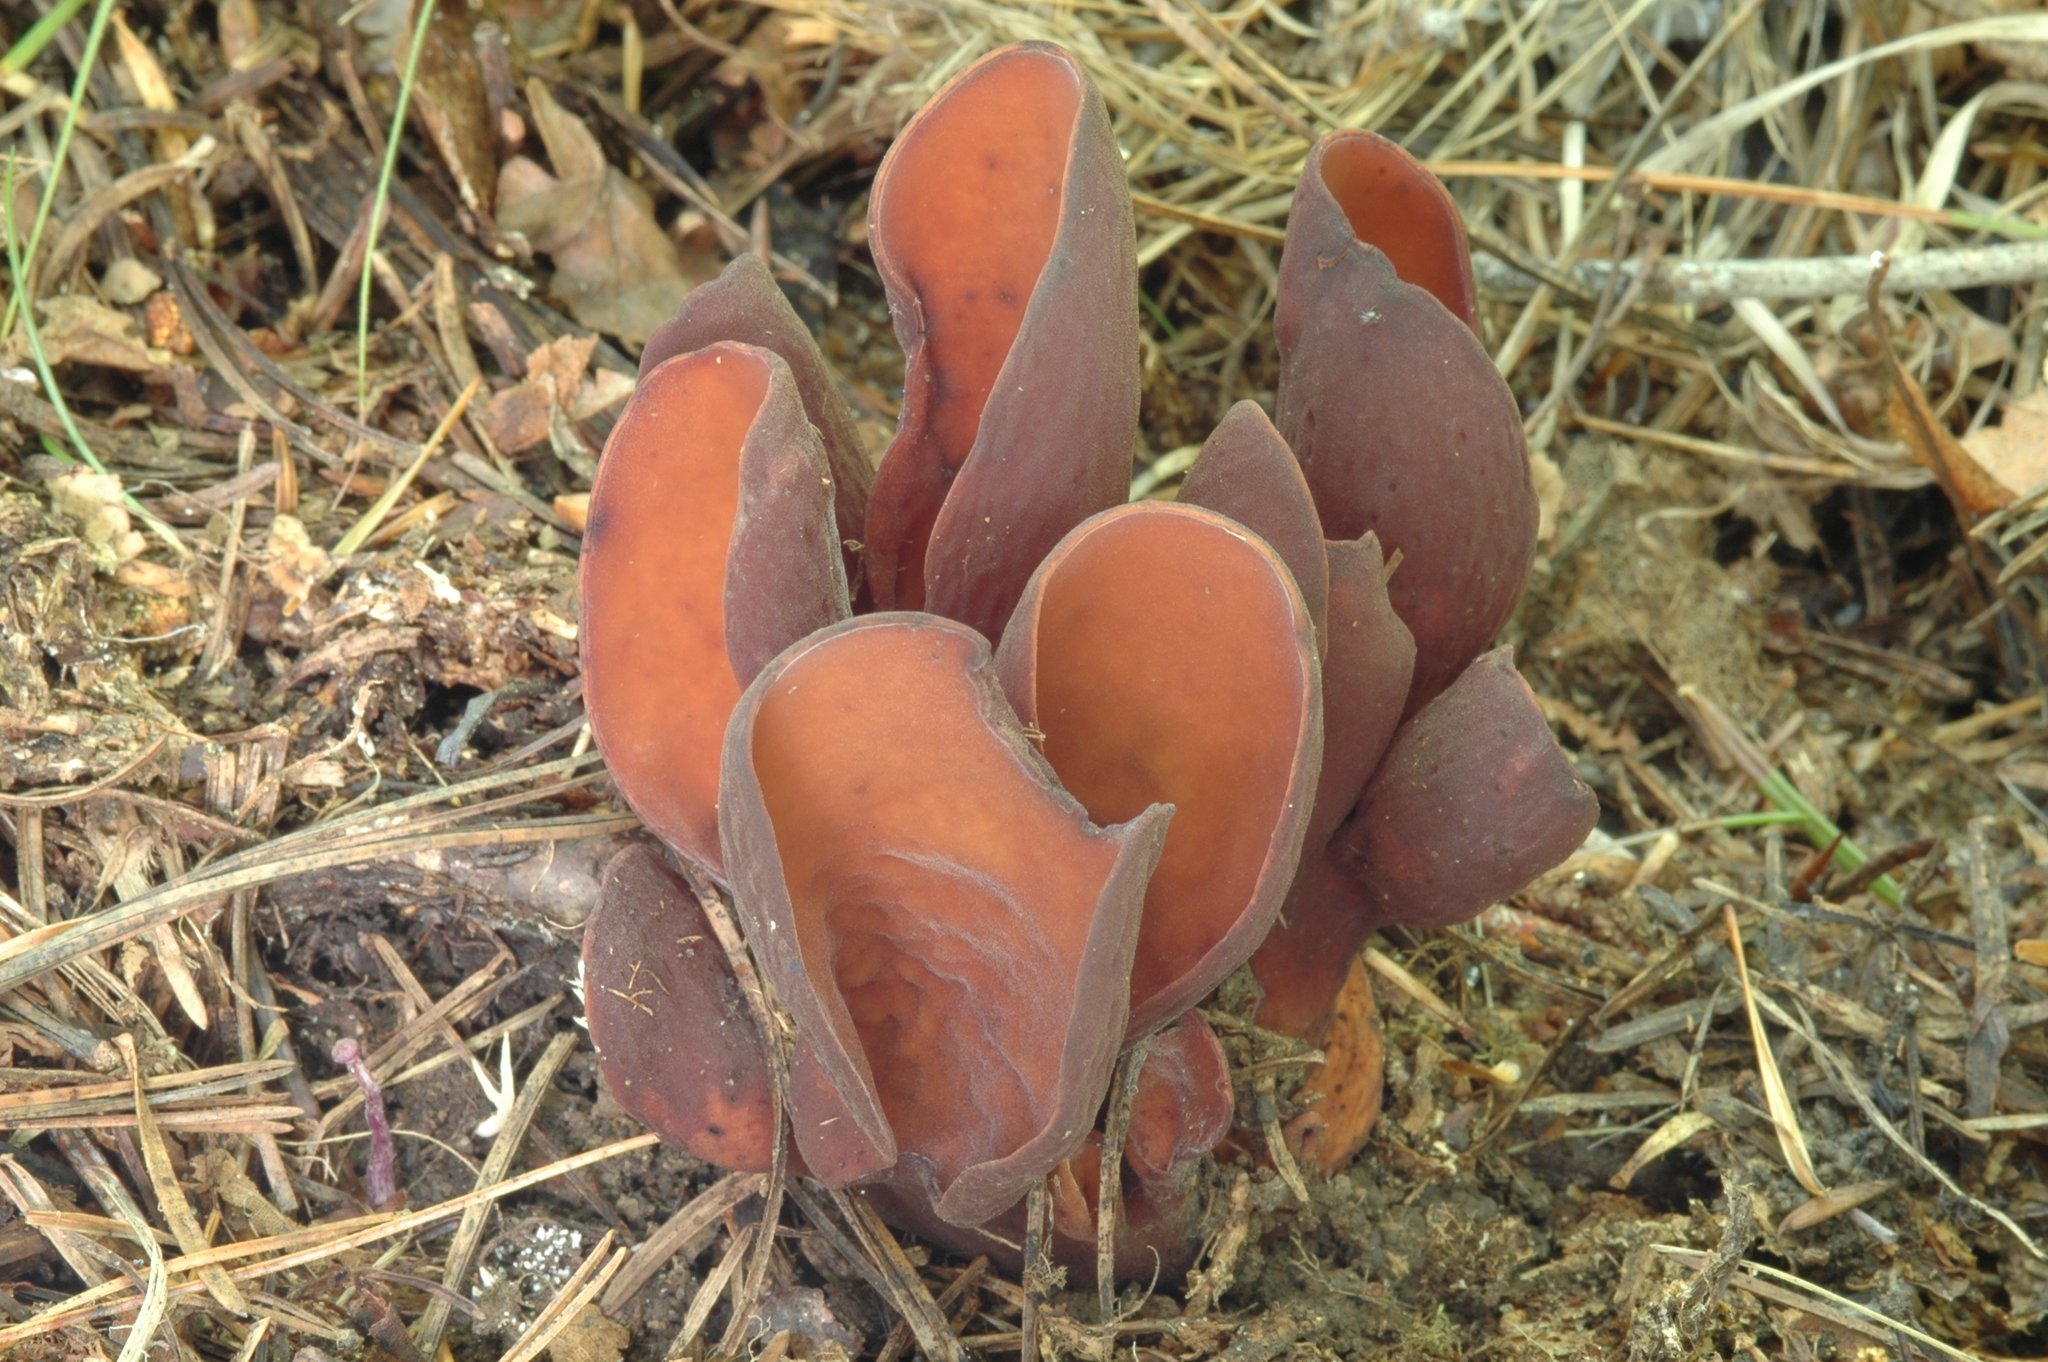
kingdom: Fungi
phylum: Ascomycota
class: Pezizomycetes
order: Pezizales
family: Wynneaceae
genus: Wynnea
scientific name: Wynnea americana
